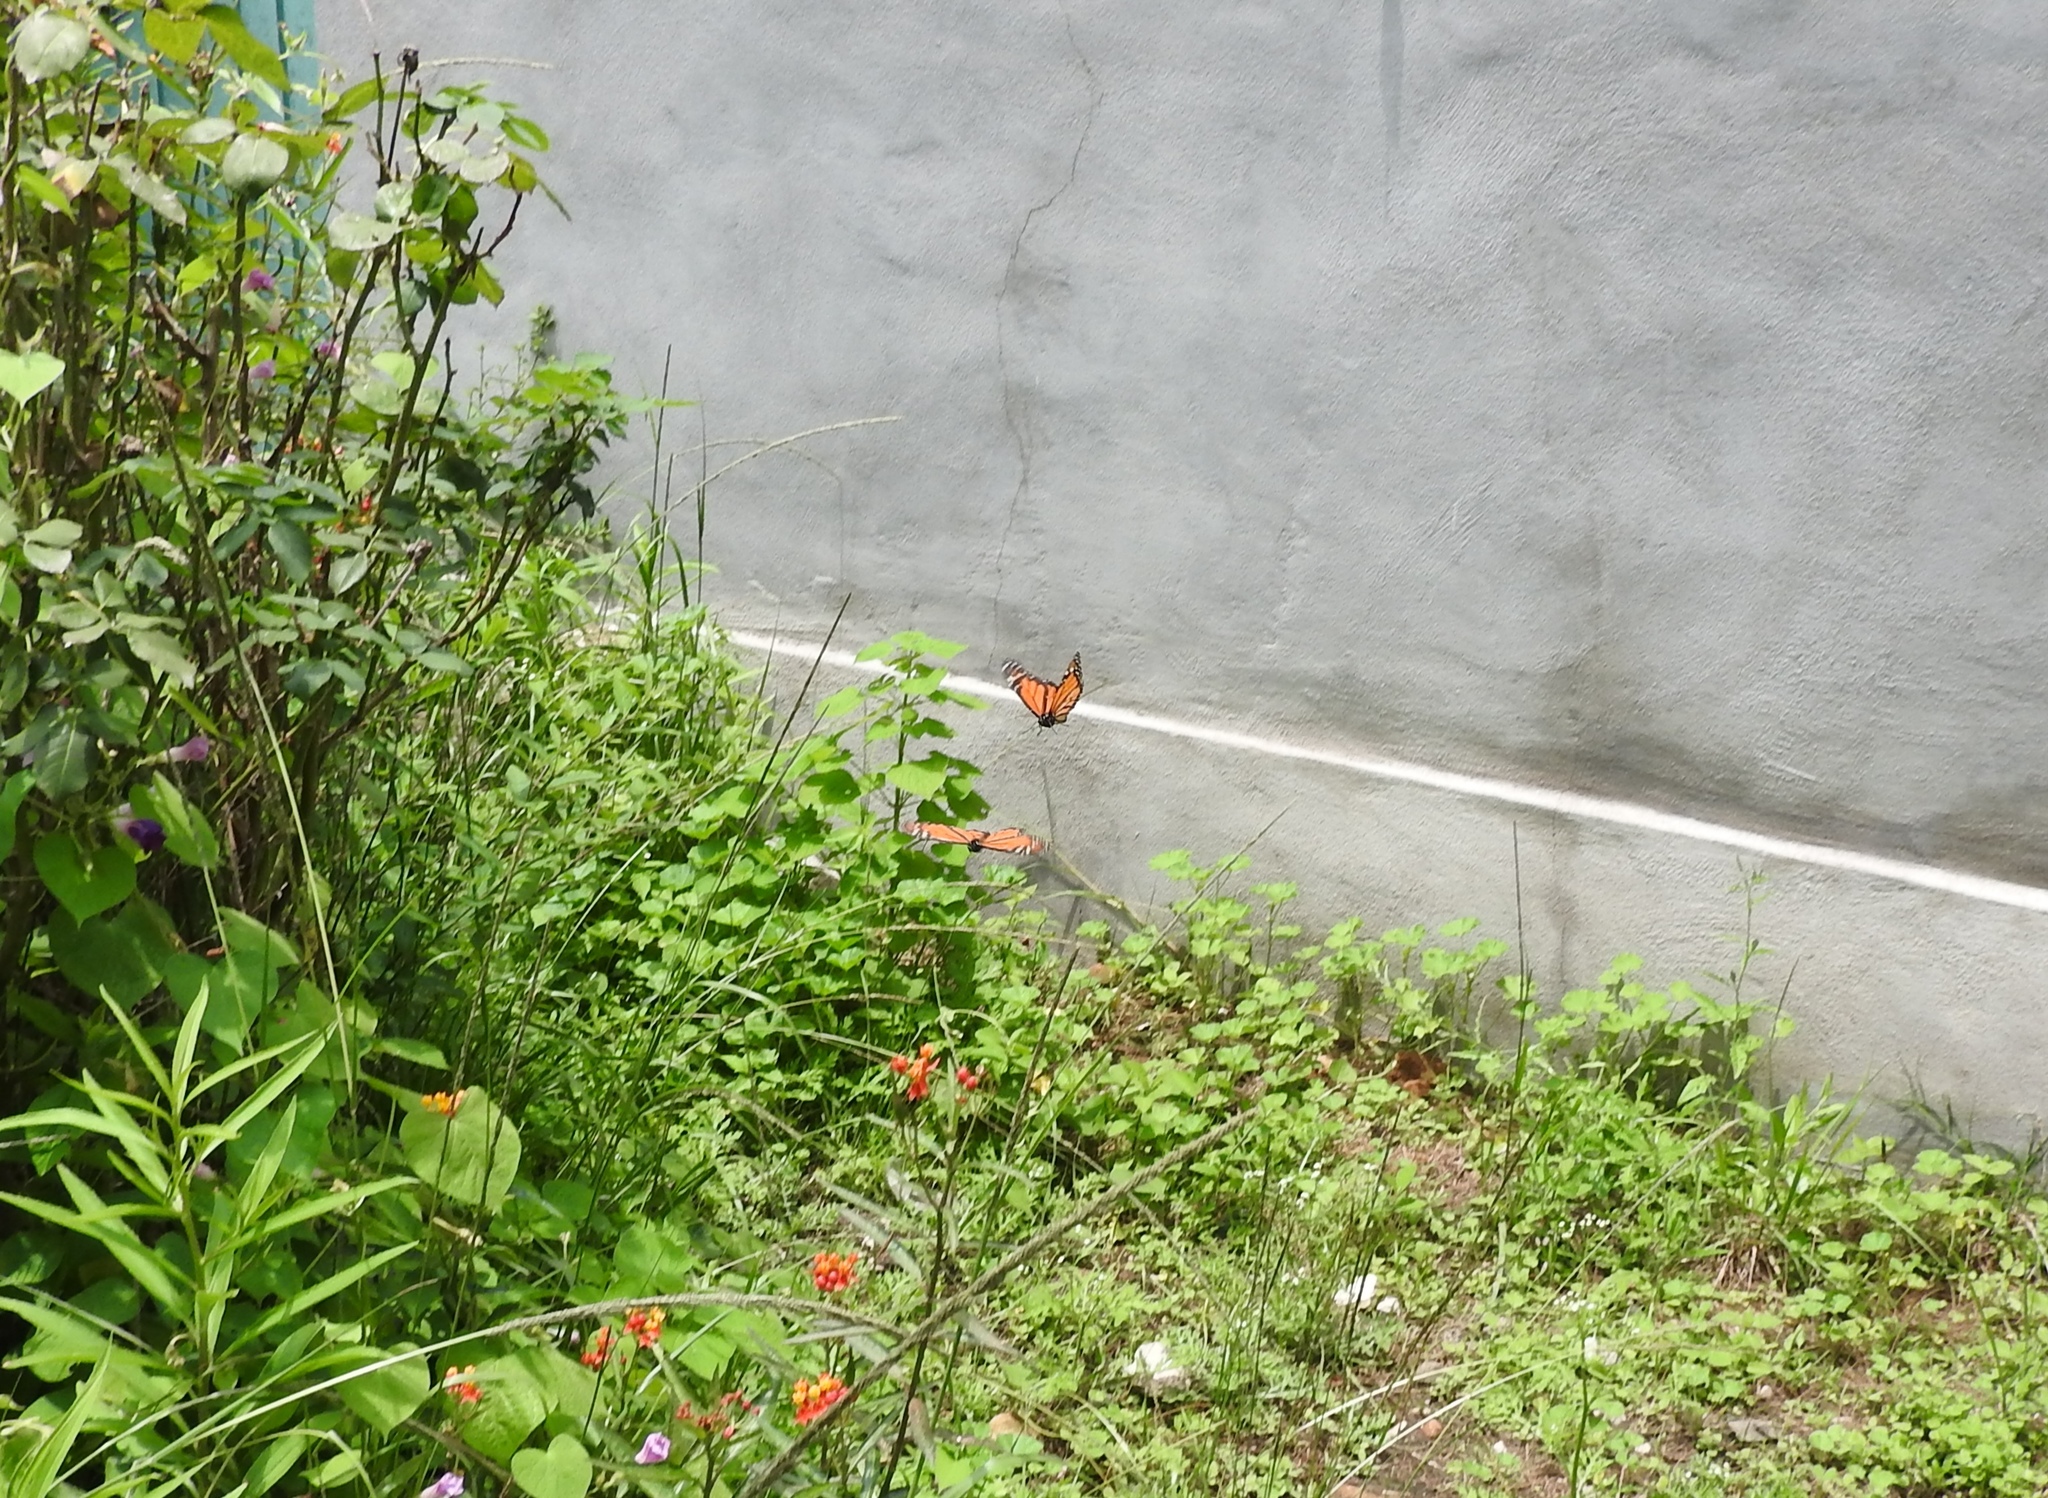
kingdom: Animalia
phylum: Arthropoda
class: Insecta
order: Lepidoptera
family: Nymphalidae
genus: Danaus
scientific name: Danaus plexippus
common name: Monarch
